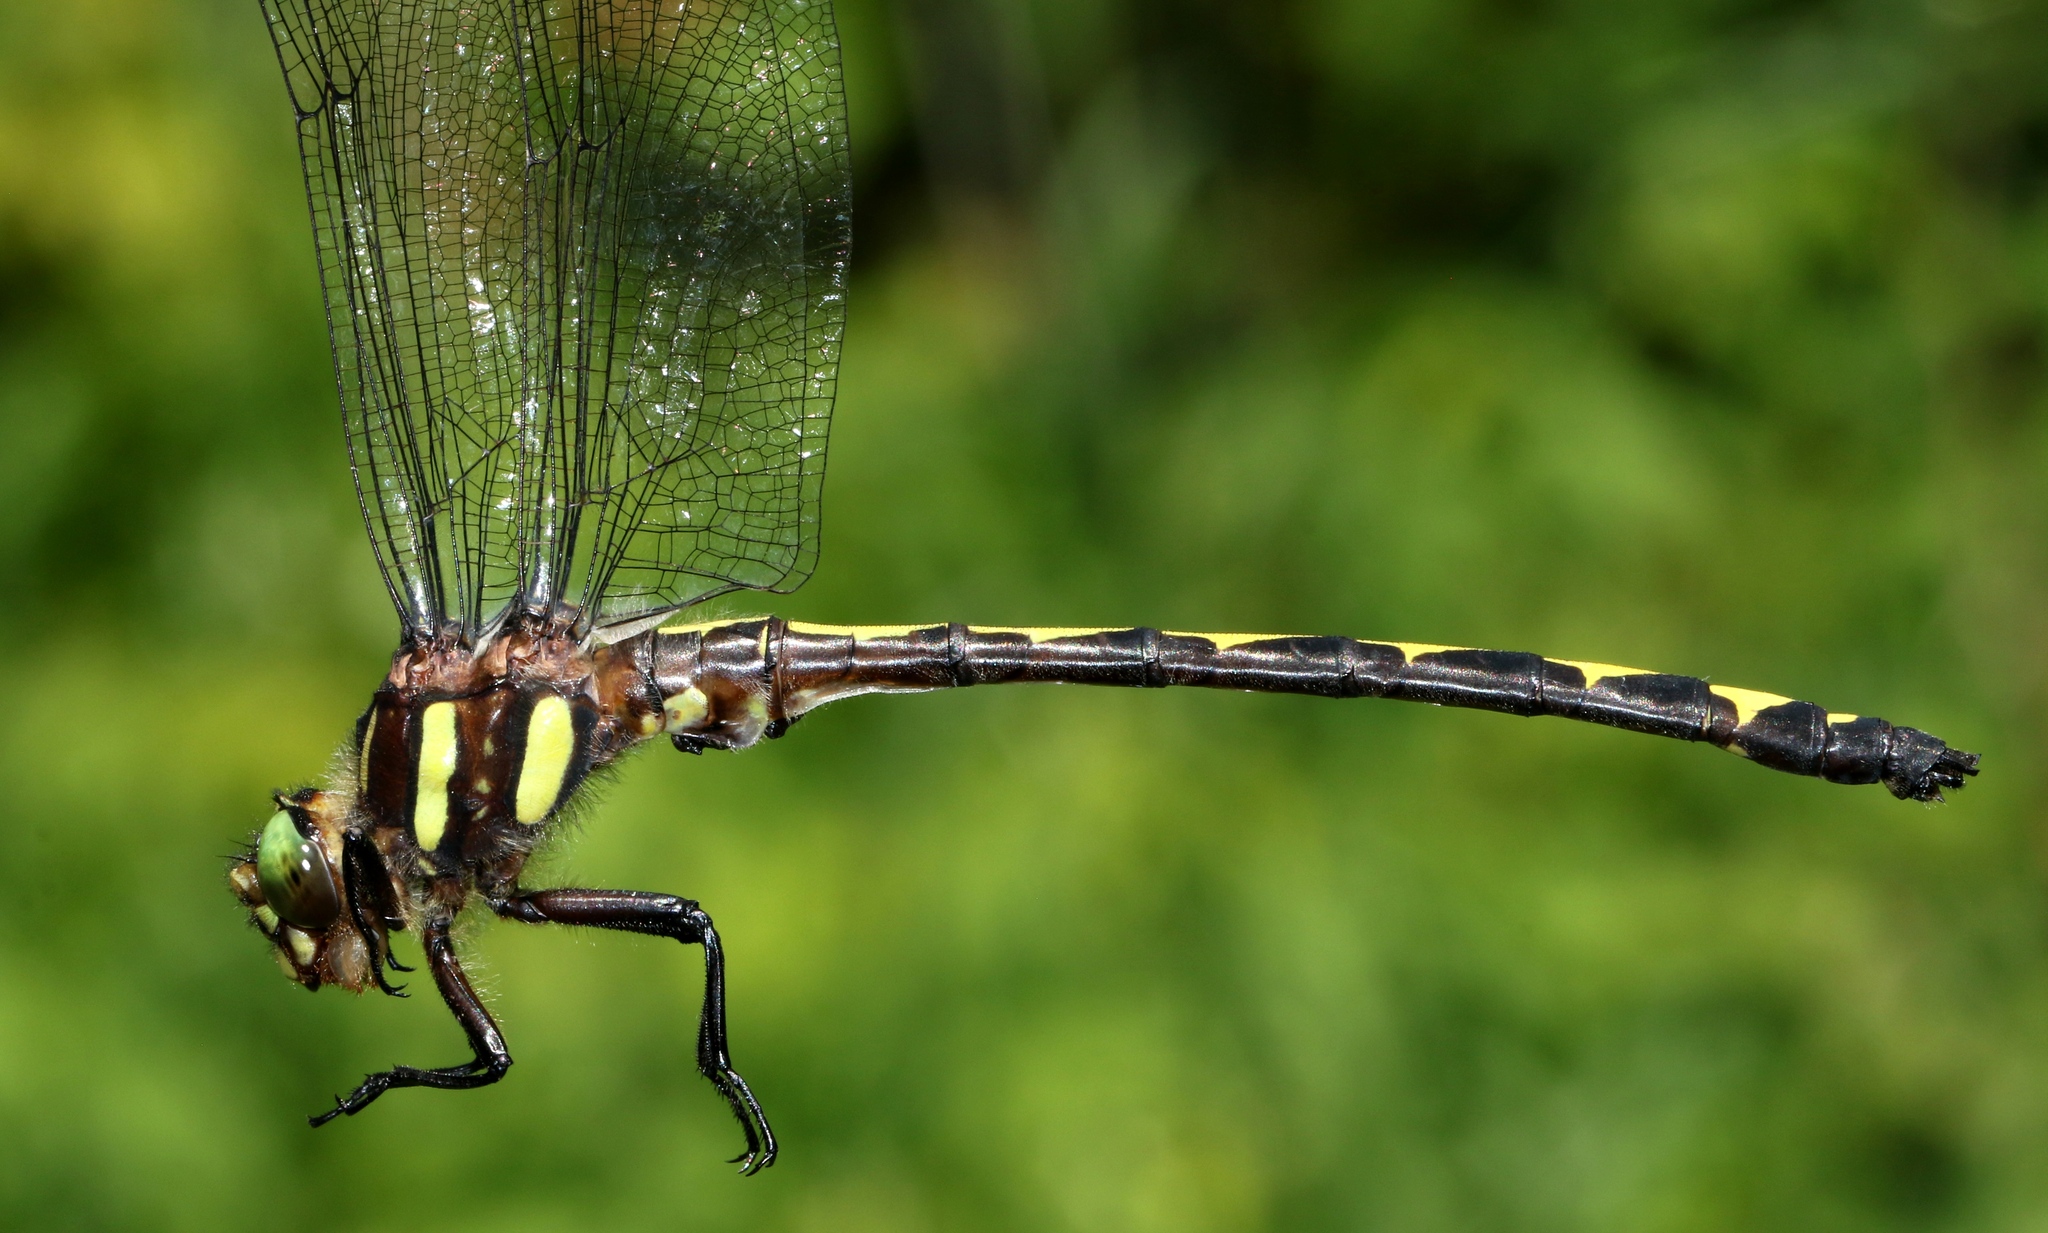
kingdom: Animalia
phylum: Arthropoda
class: Insecta
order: Odonata
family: Cordulegastridae
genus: Cordulegaster
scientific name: Cordulegaster obliqua
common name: Arrowhead spiketail
